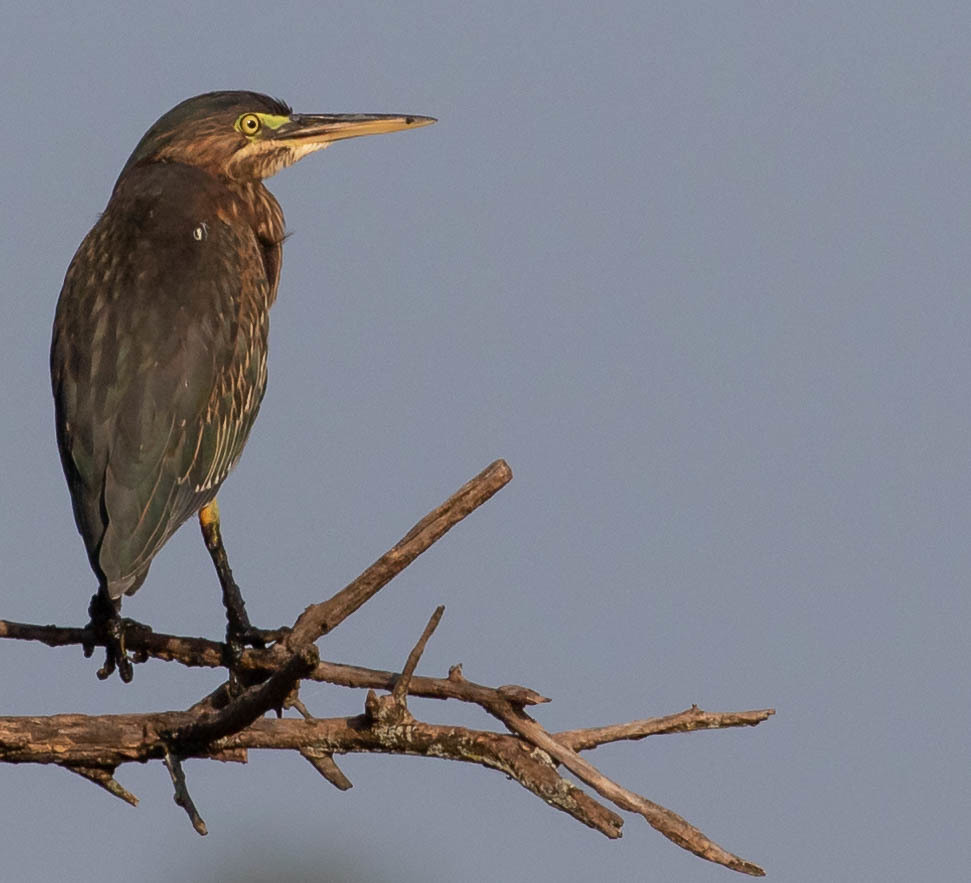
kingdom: Animalia
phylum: Chordata
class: Aves
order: Pelecaniformes
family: Ardeidae
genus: Butorides
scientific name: Butorides virescens
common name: Green heron
